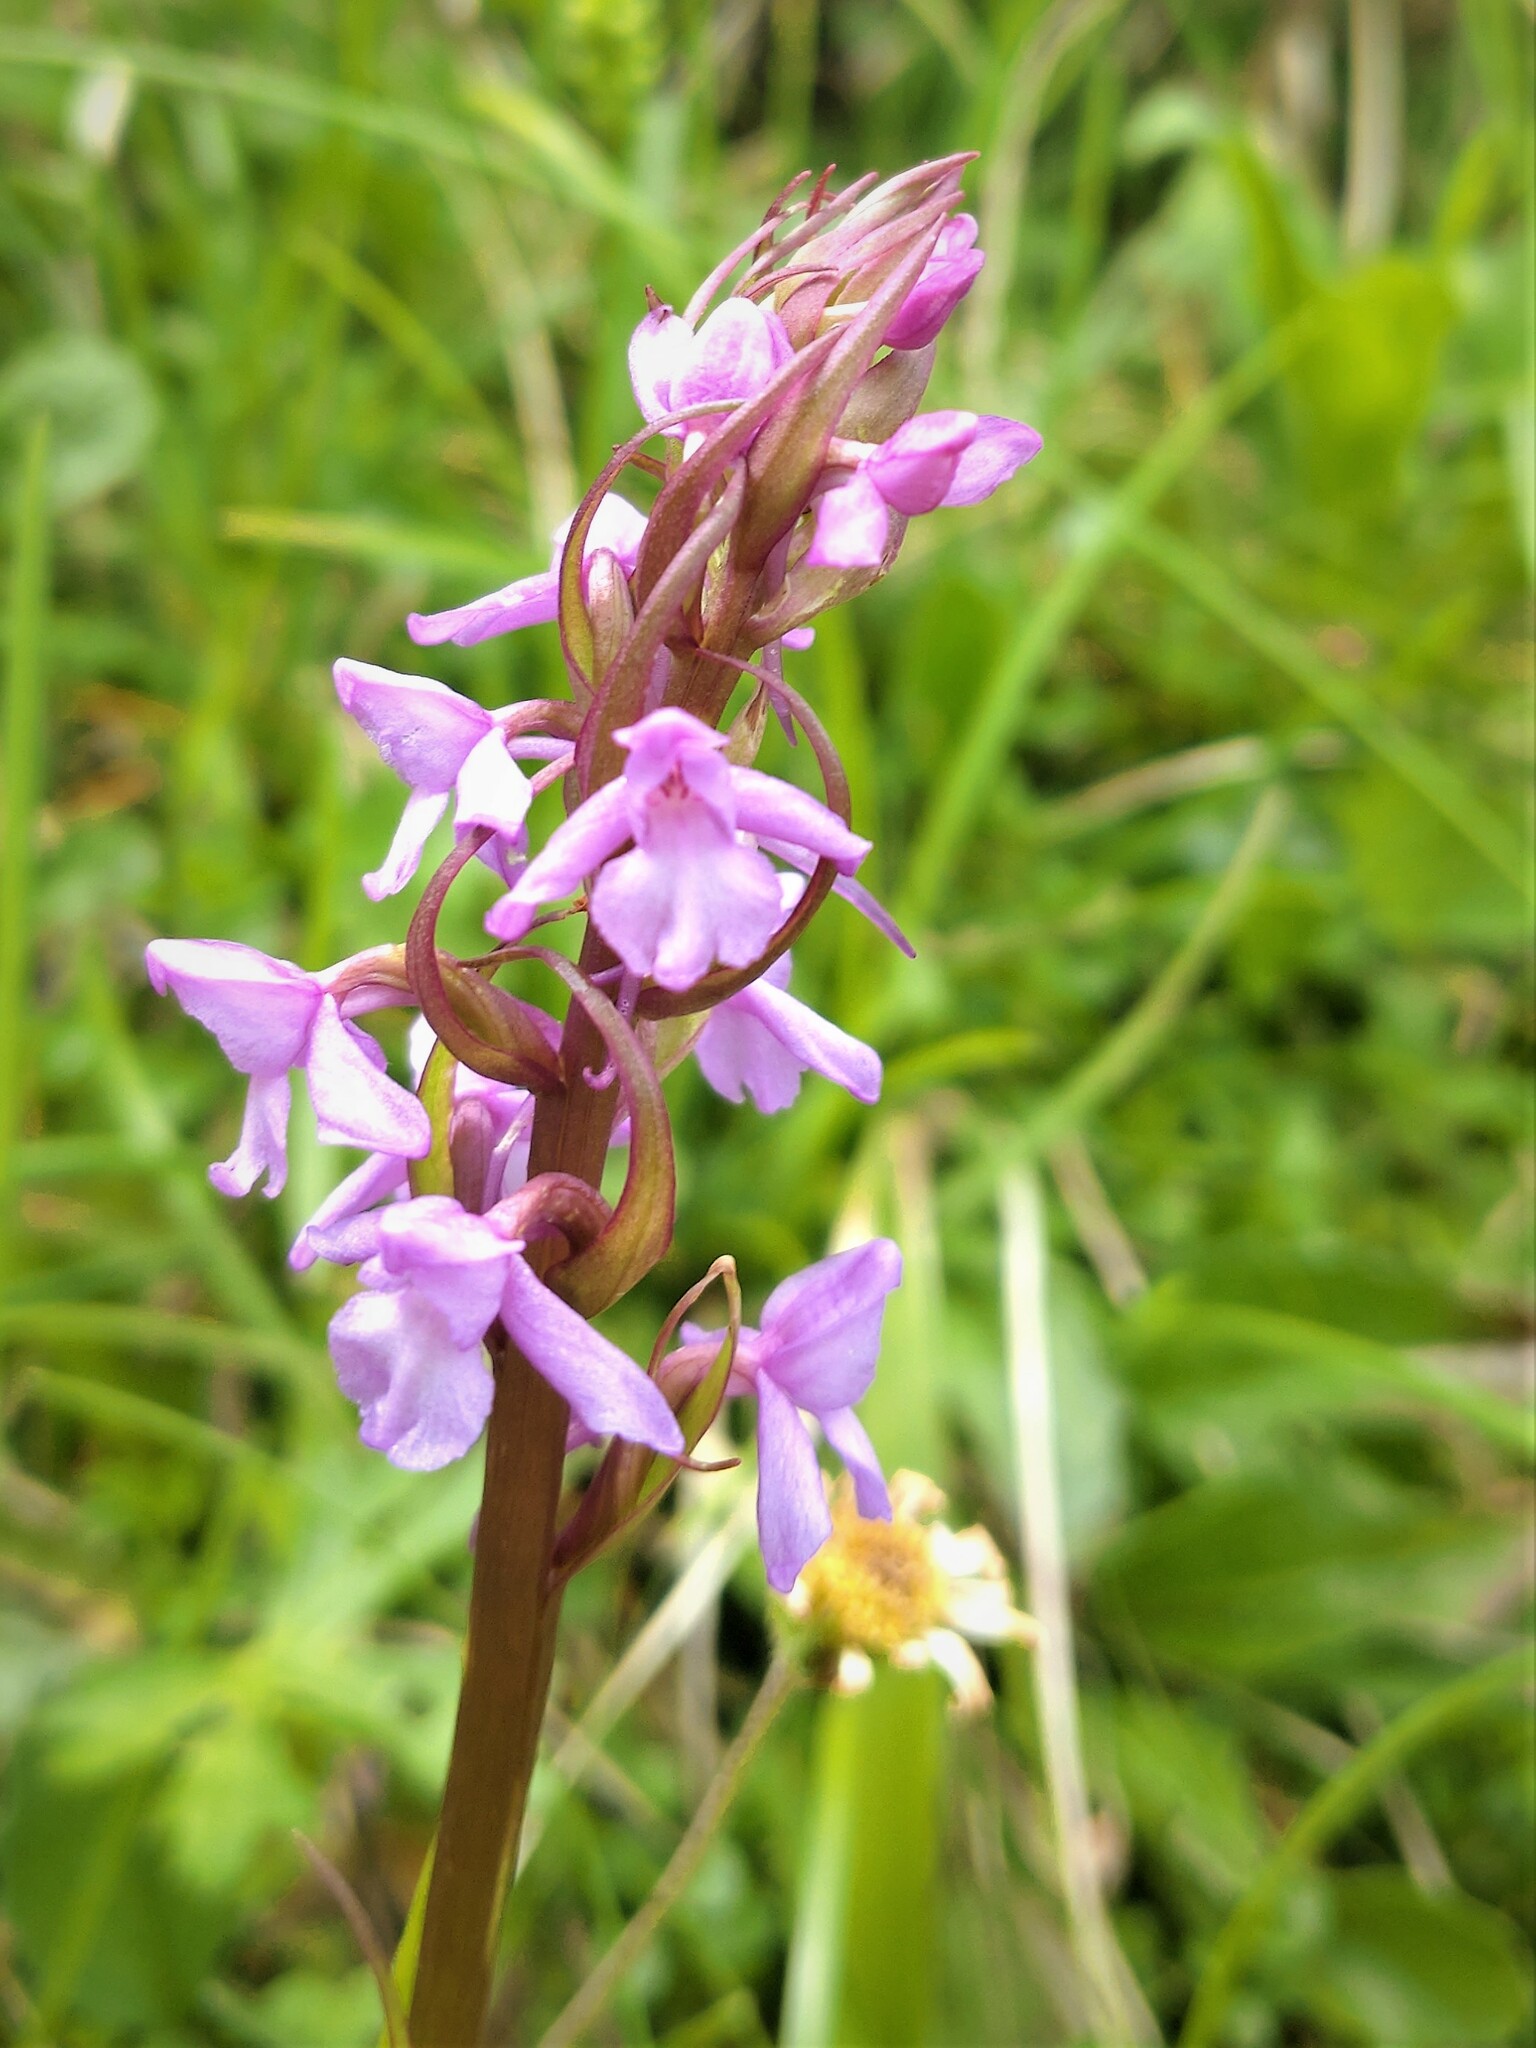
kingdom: Plantae
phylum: Tracheophyta
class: Liliopsida
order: Asparagales
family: Orchidaceae
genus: Gymnadenia
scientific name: Gymnadenia conopsea
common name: Fragrant orchid
